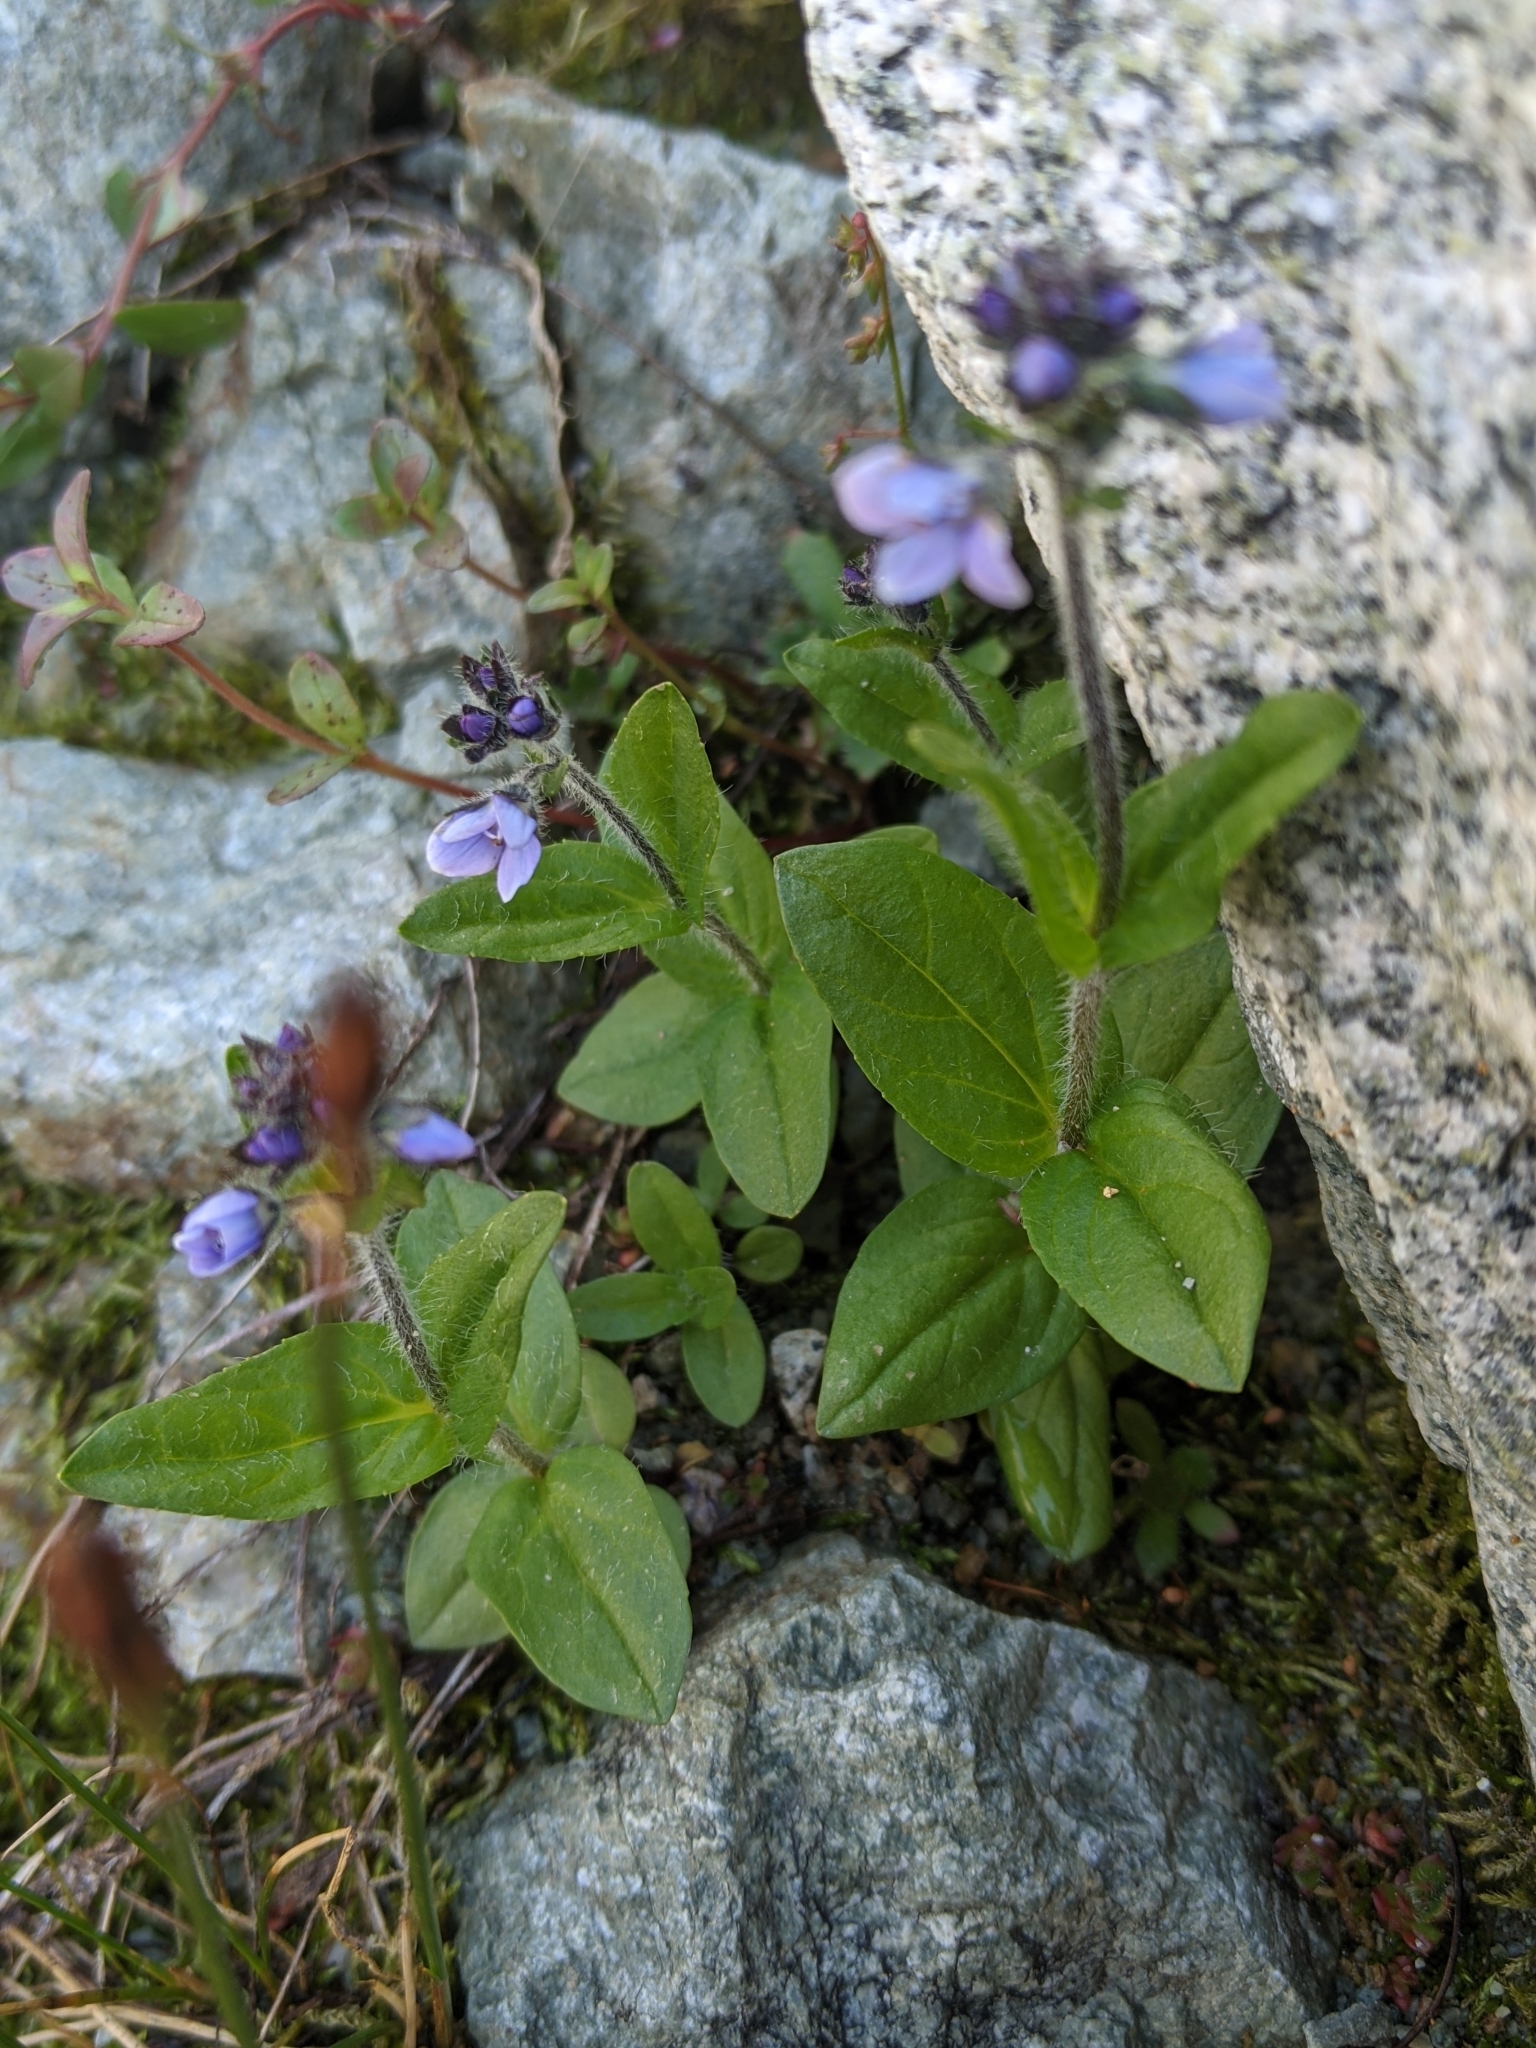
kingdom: Plantae
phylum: Tracheophyta
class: Magnoliopsida
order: Lamiales
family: Plantaginaceae
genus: Veronica
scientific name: Veronica wormskjoldii
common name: American alpine speedwell
